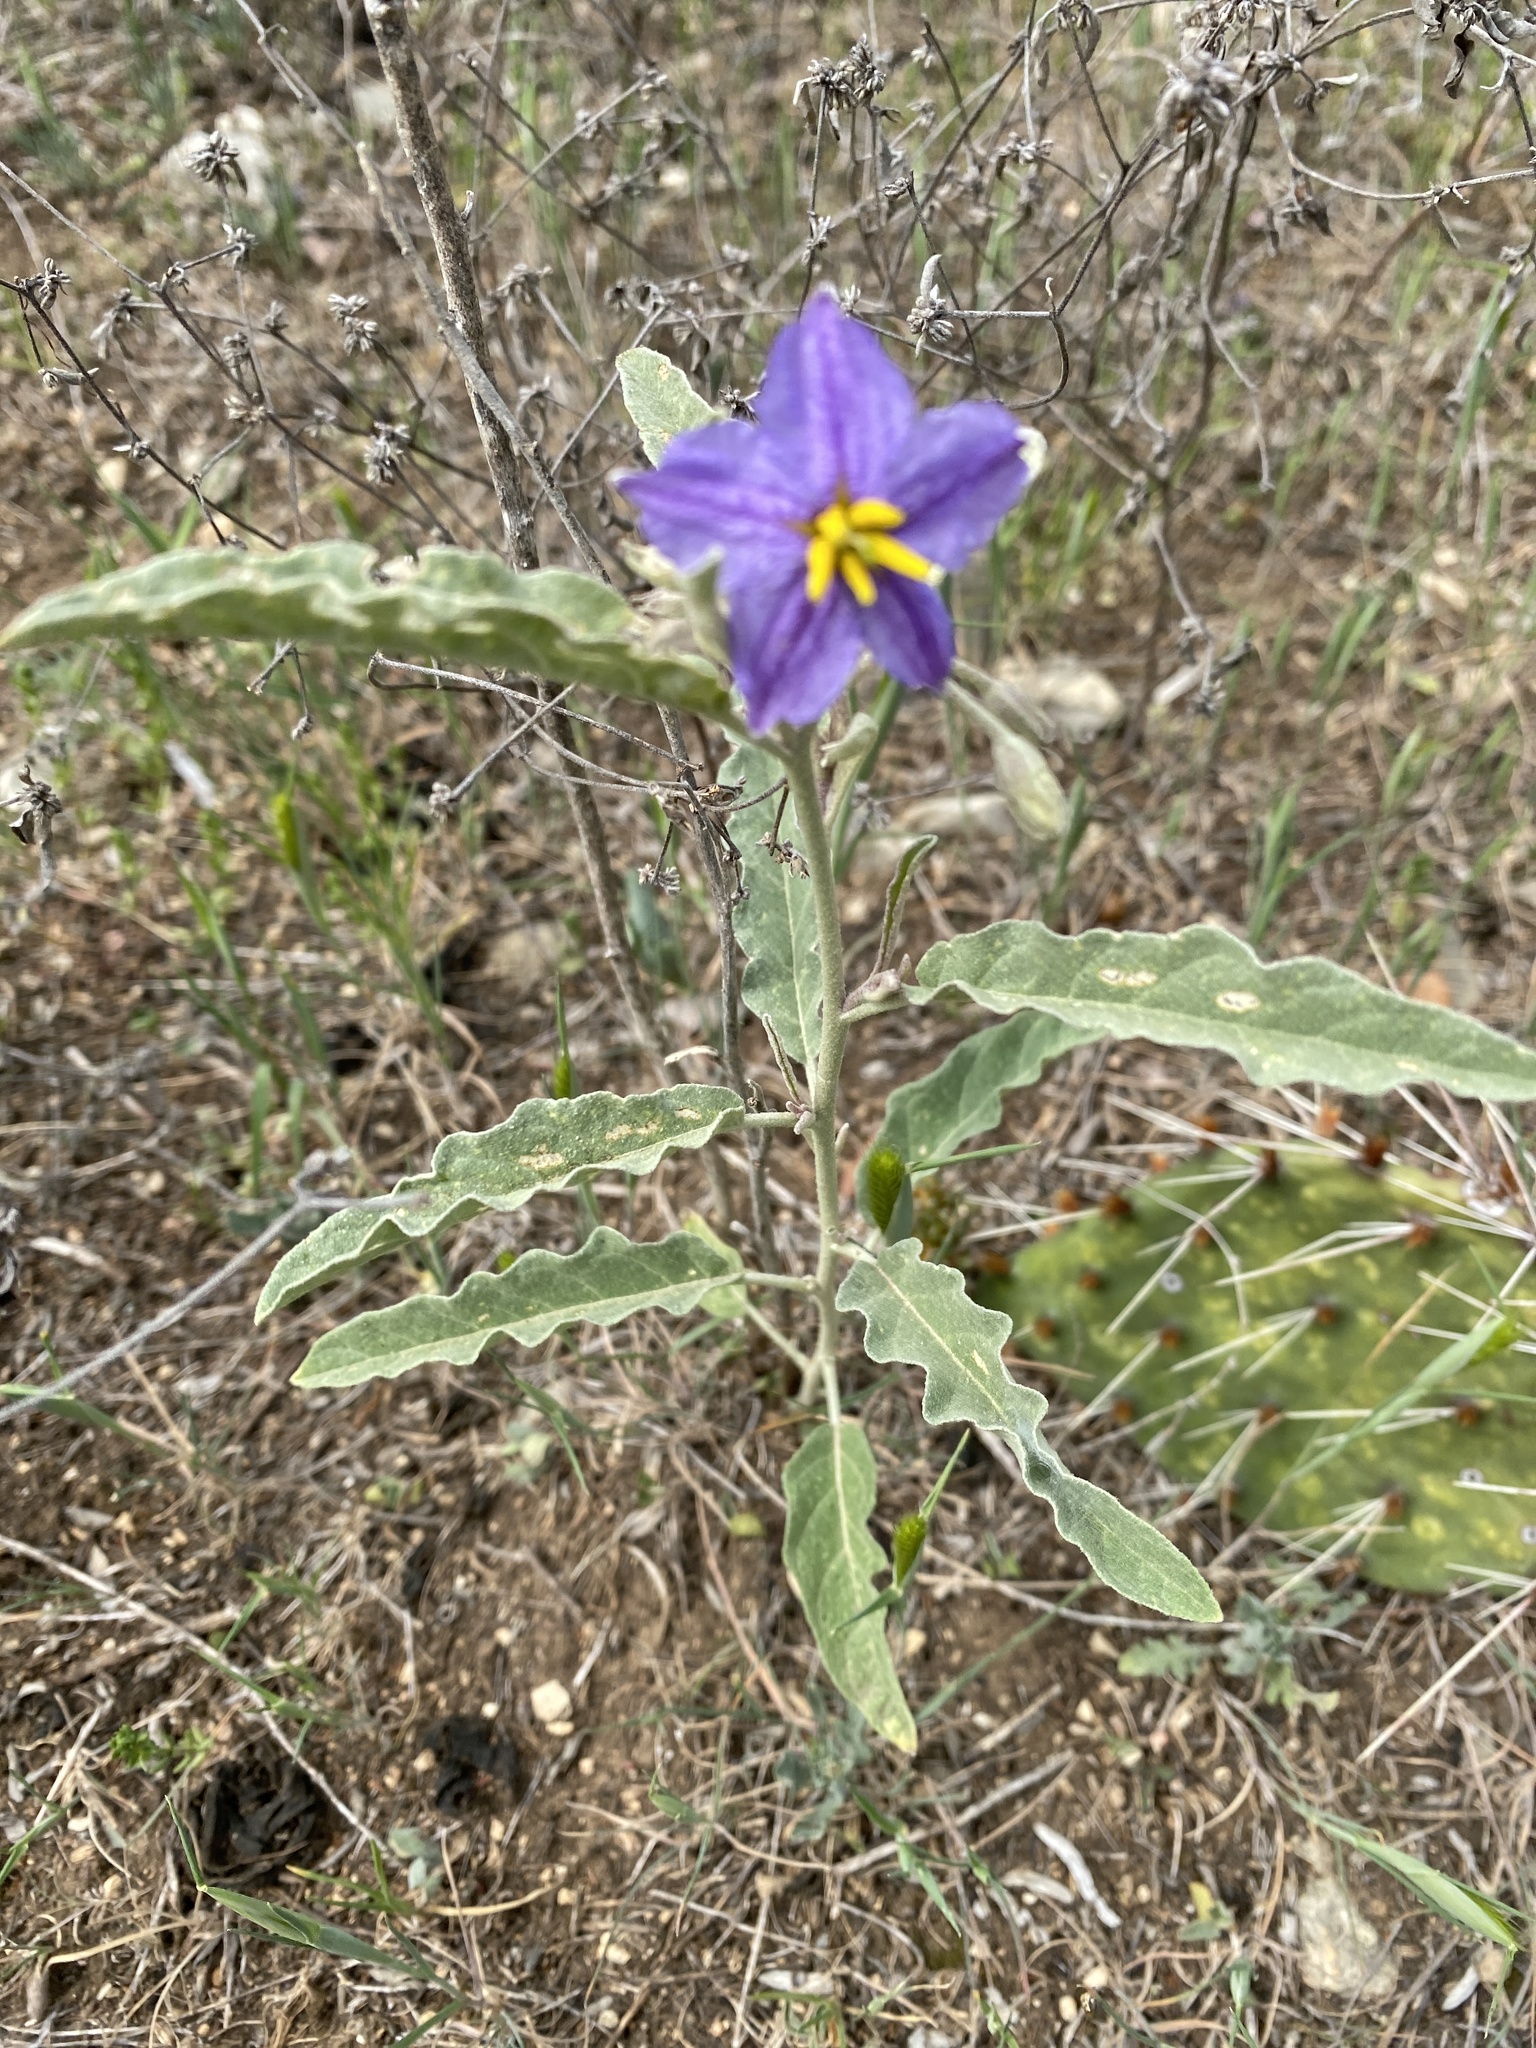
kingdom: Plantae
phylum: Tracheophyta
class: Magnoliopsida
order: Solanales
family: Solanaceae
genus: Solanum
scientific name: Solanum elaeagnifolium
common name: Silverleaf nightshade
